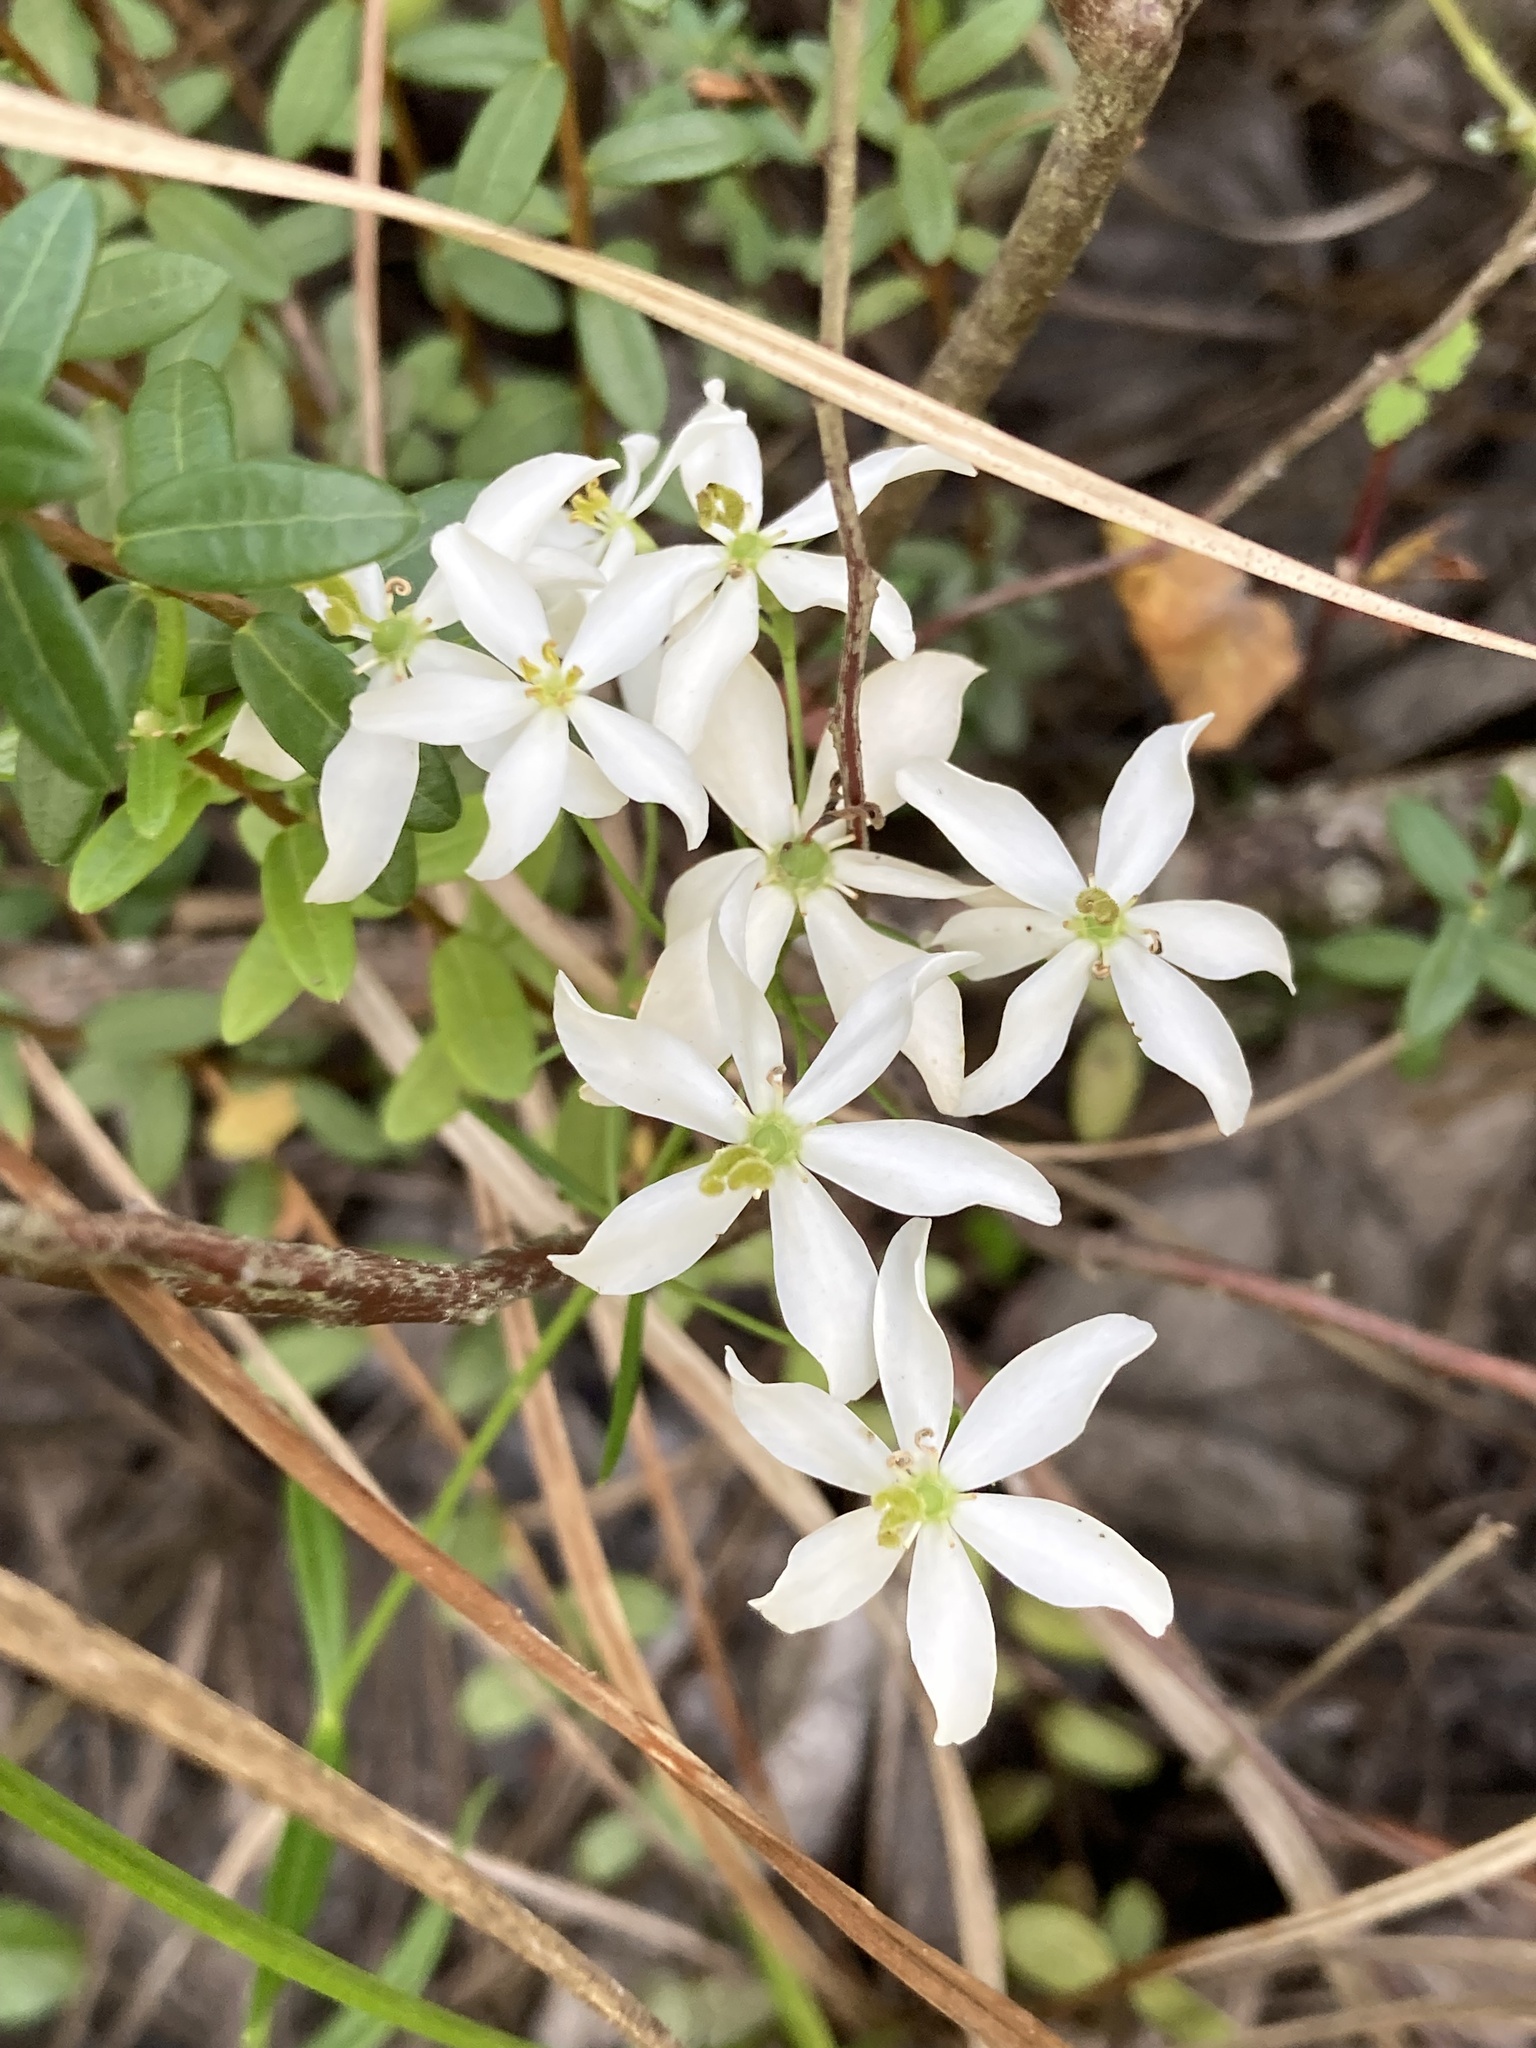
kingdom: Plantae
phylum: Tracheophyta
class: Magnoliopsida
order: Gentianales
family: Gentianaceae
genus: Sabatia
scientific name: Sabatia difformis
